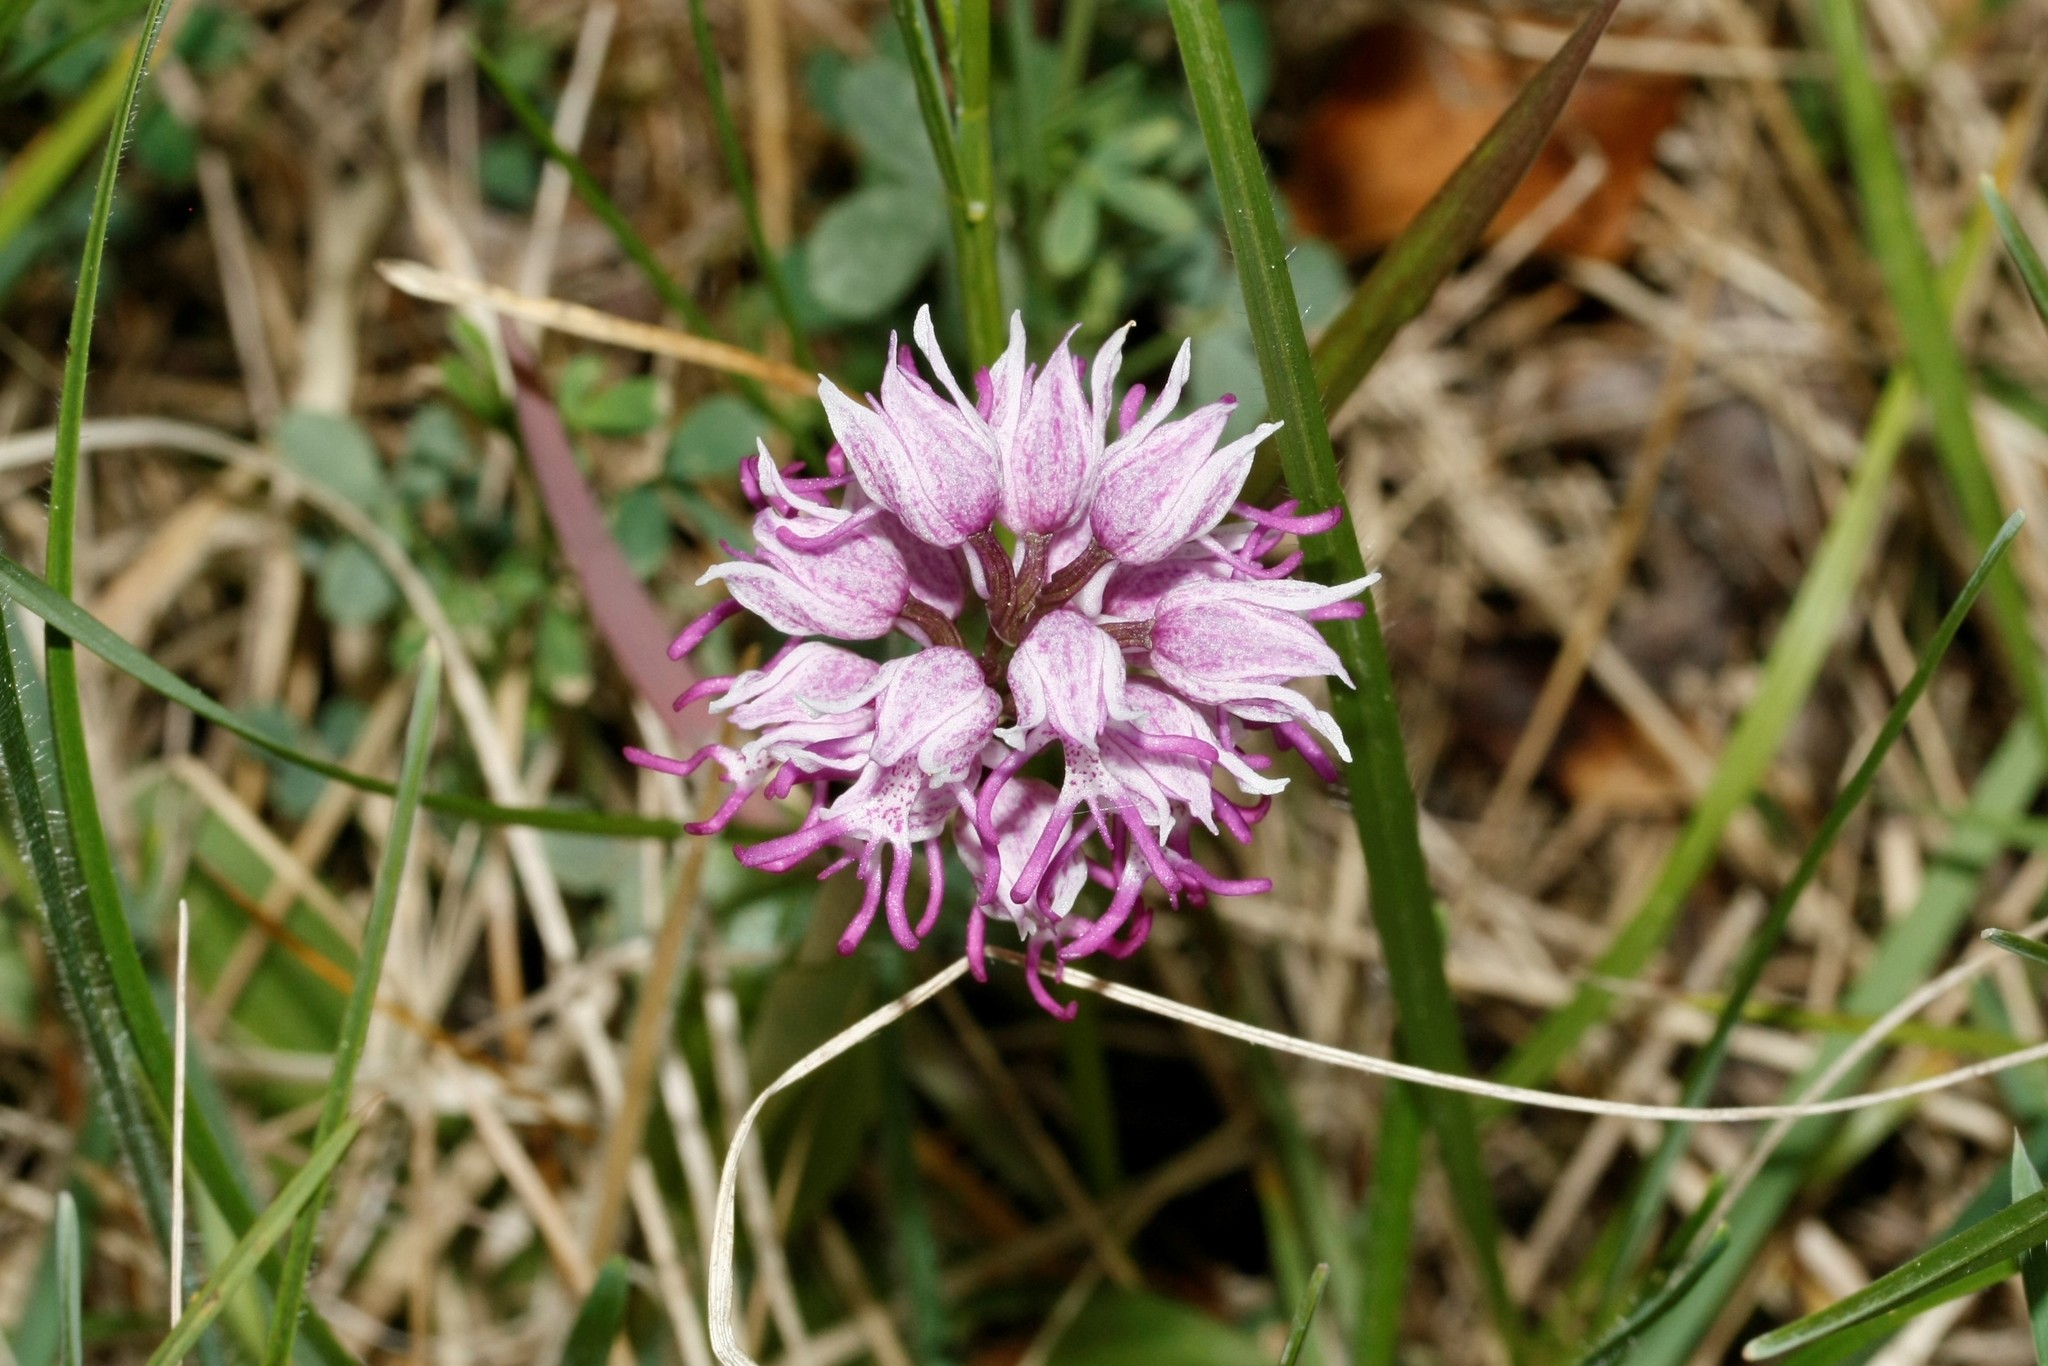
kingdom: Plantae
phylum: Tracheophyta
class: Liliopsida
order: Asparagales
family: Orchidaceae
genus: Orchis
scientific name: Orchis simia
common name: Monkey orchid
